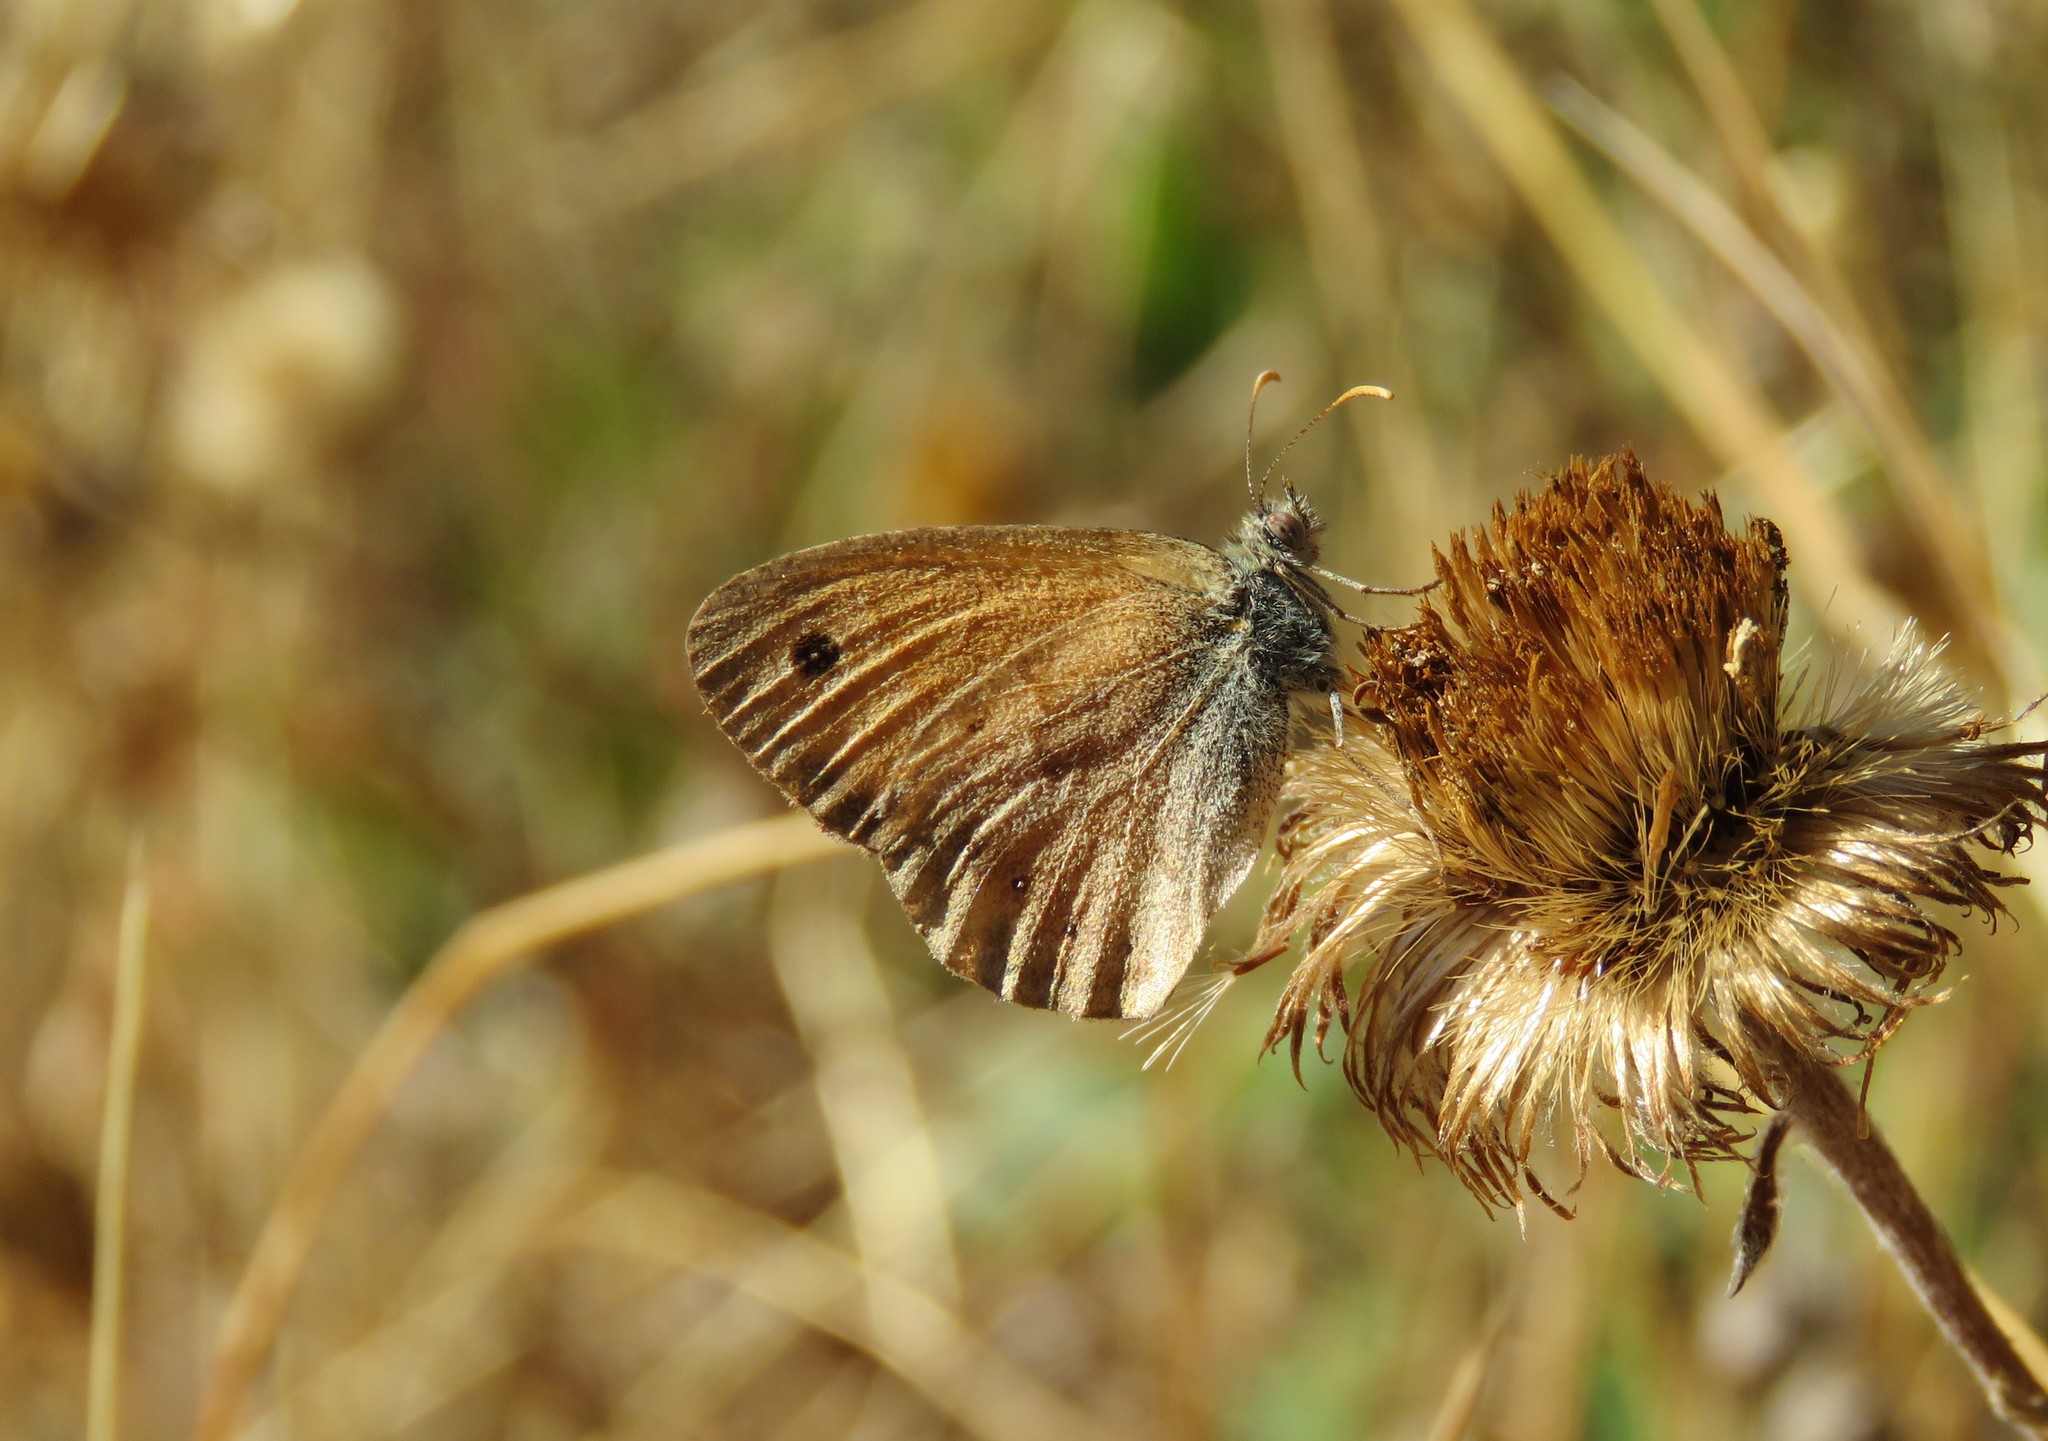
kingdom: Animalia
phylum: Arthropoda
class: Insecta
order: Lepidoptera
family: Nymphalidae
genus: Coenonympha
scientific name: Coenonympha pamphilus
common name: Small heath
